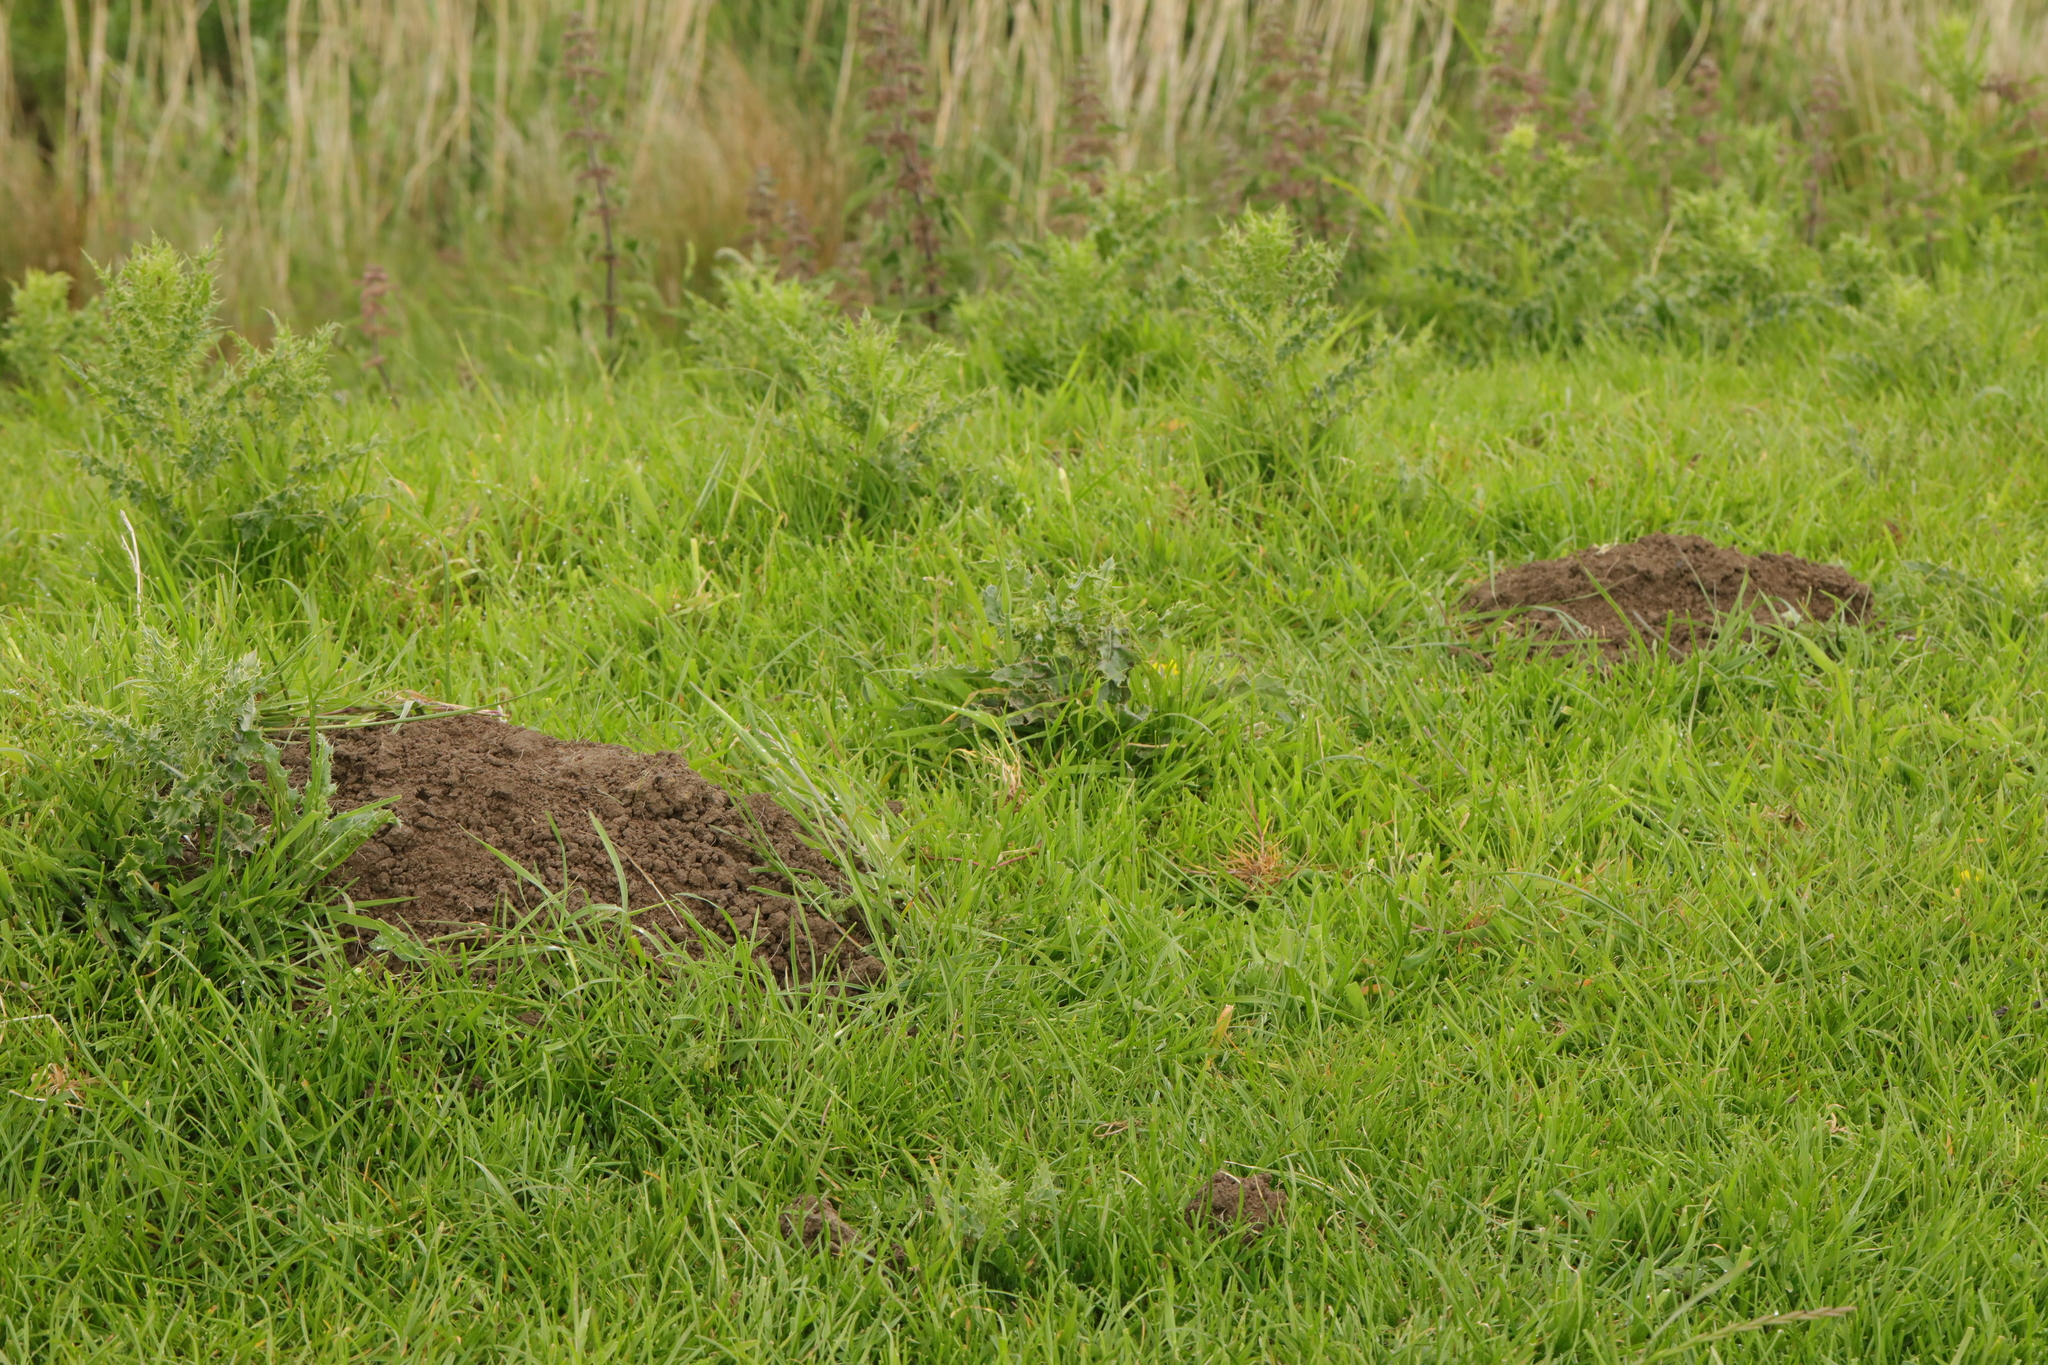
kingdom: Animalia
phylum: Chordata
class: Mammalia
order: Soricomorpha
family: Talpidae
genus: Talpa
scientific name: Talpa europaea
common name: European mole
